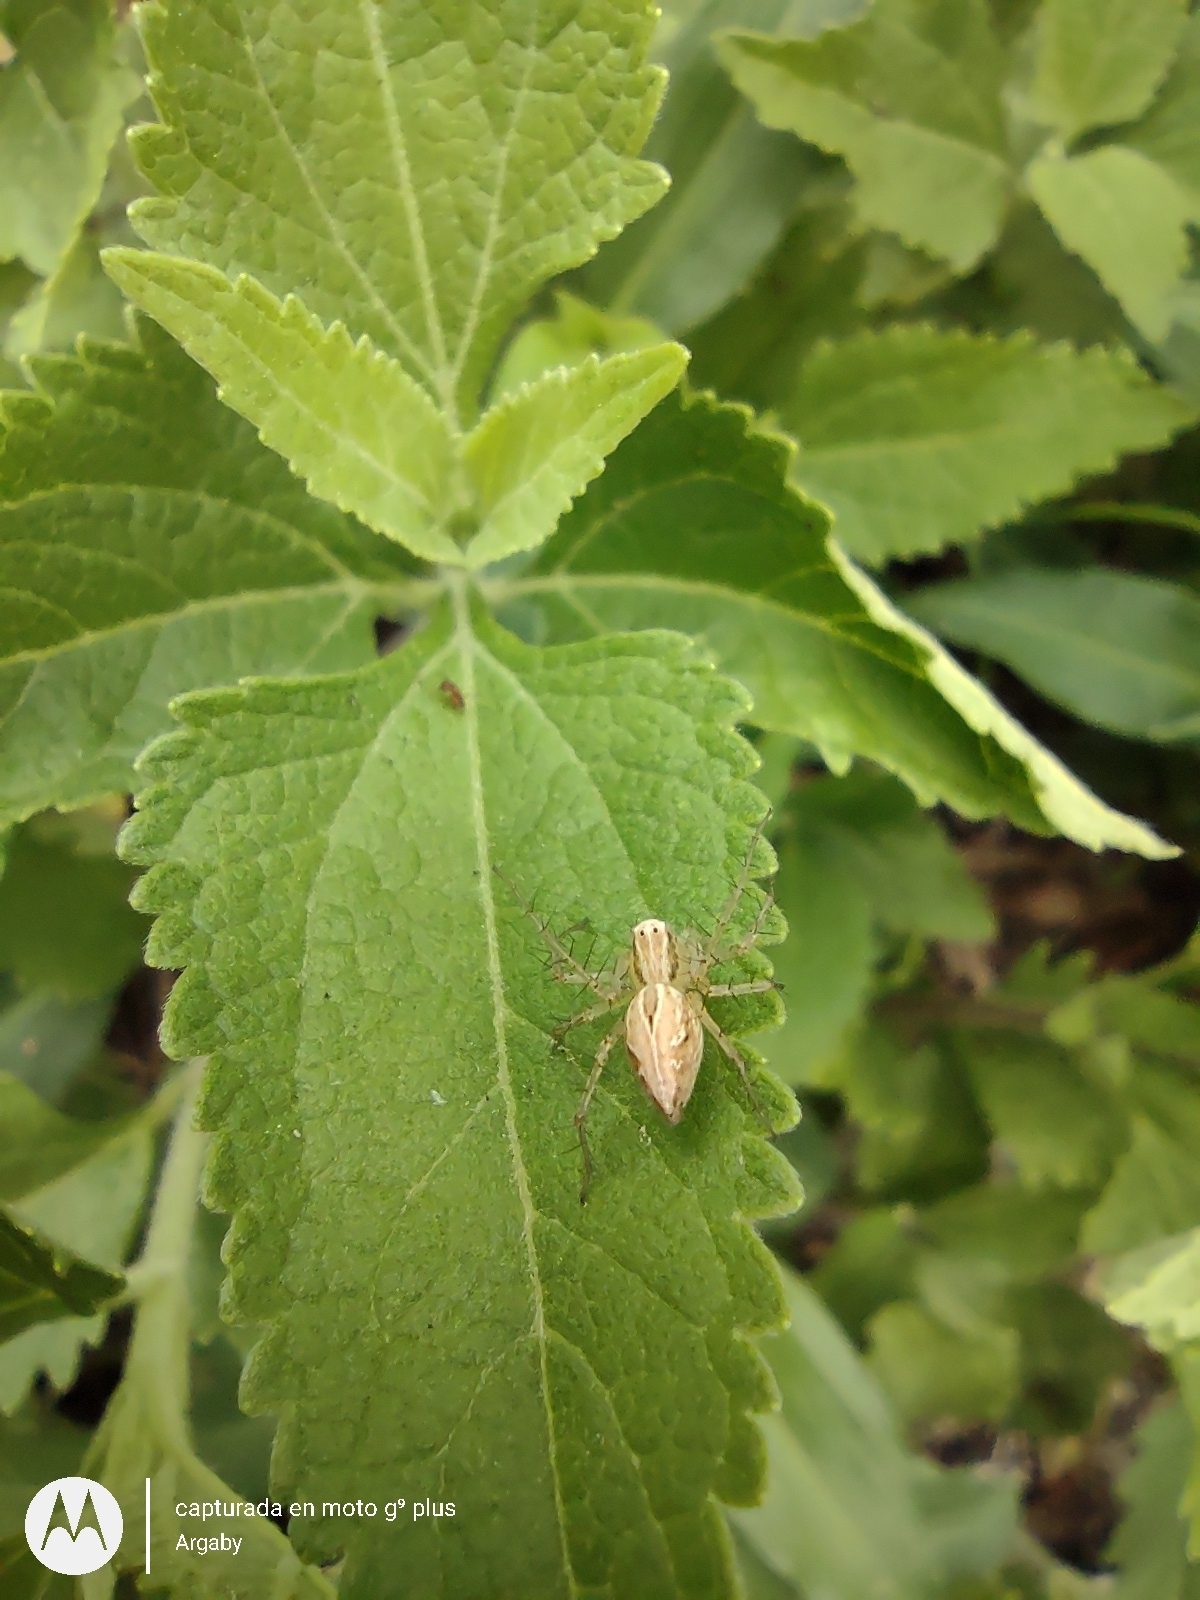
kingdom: Animalia
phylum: Arthropoda
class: Arachnida
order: Araneae
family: Oxyopidae
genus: Oxyopes
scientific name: Oxyopes salticus
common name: Lynx spiders
